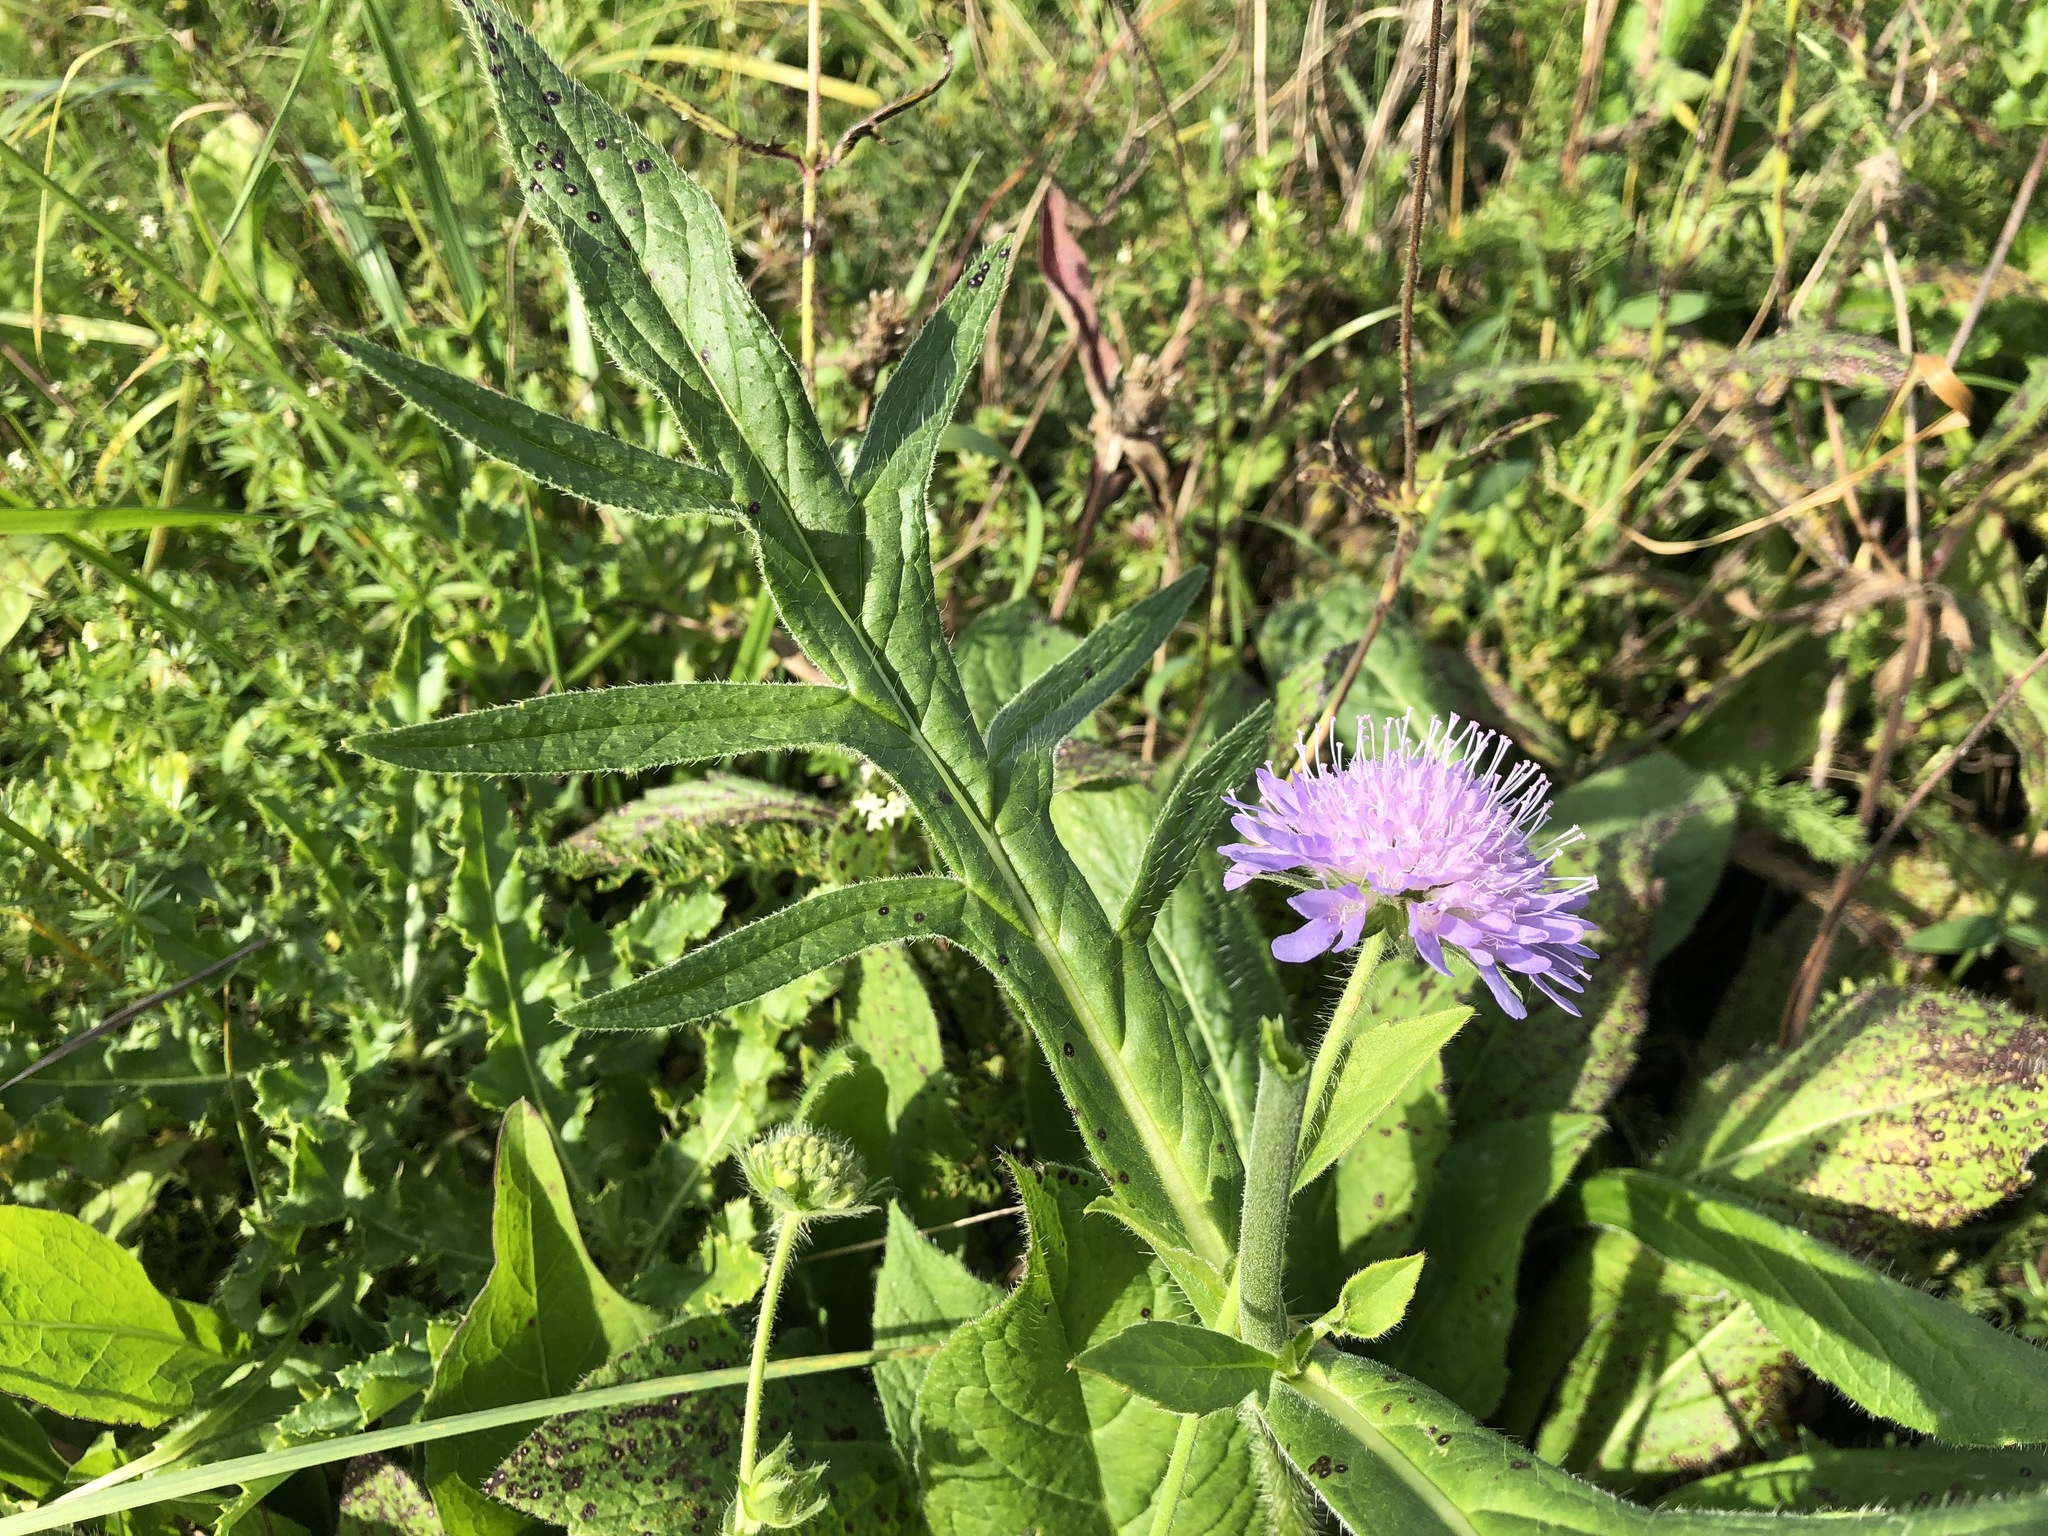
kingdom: Plantae
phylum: Tracheophyta
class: Magnoliopsida
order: Dipsacales
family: Caprifoliaceae
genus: Knautia
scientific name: Knautia arvensis
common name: Field scabiosa
